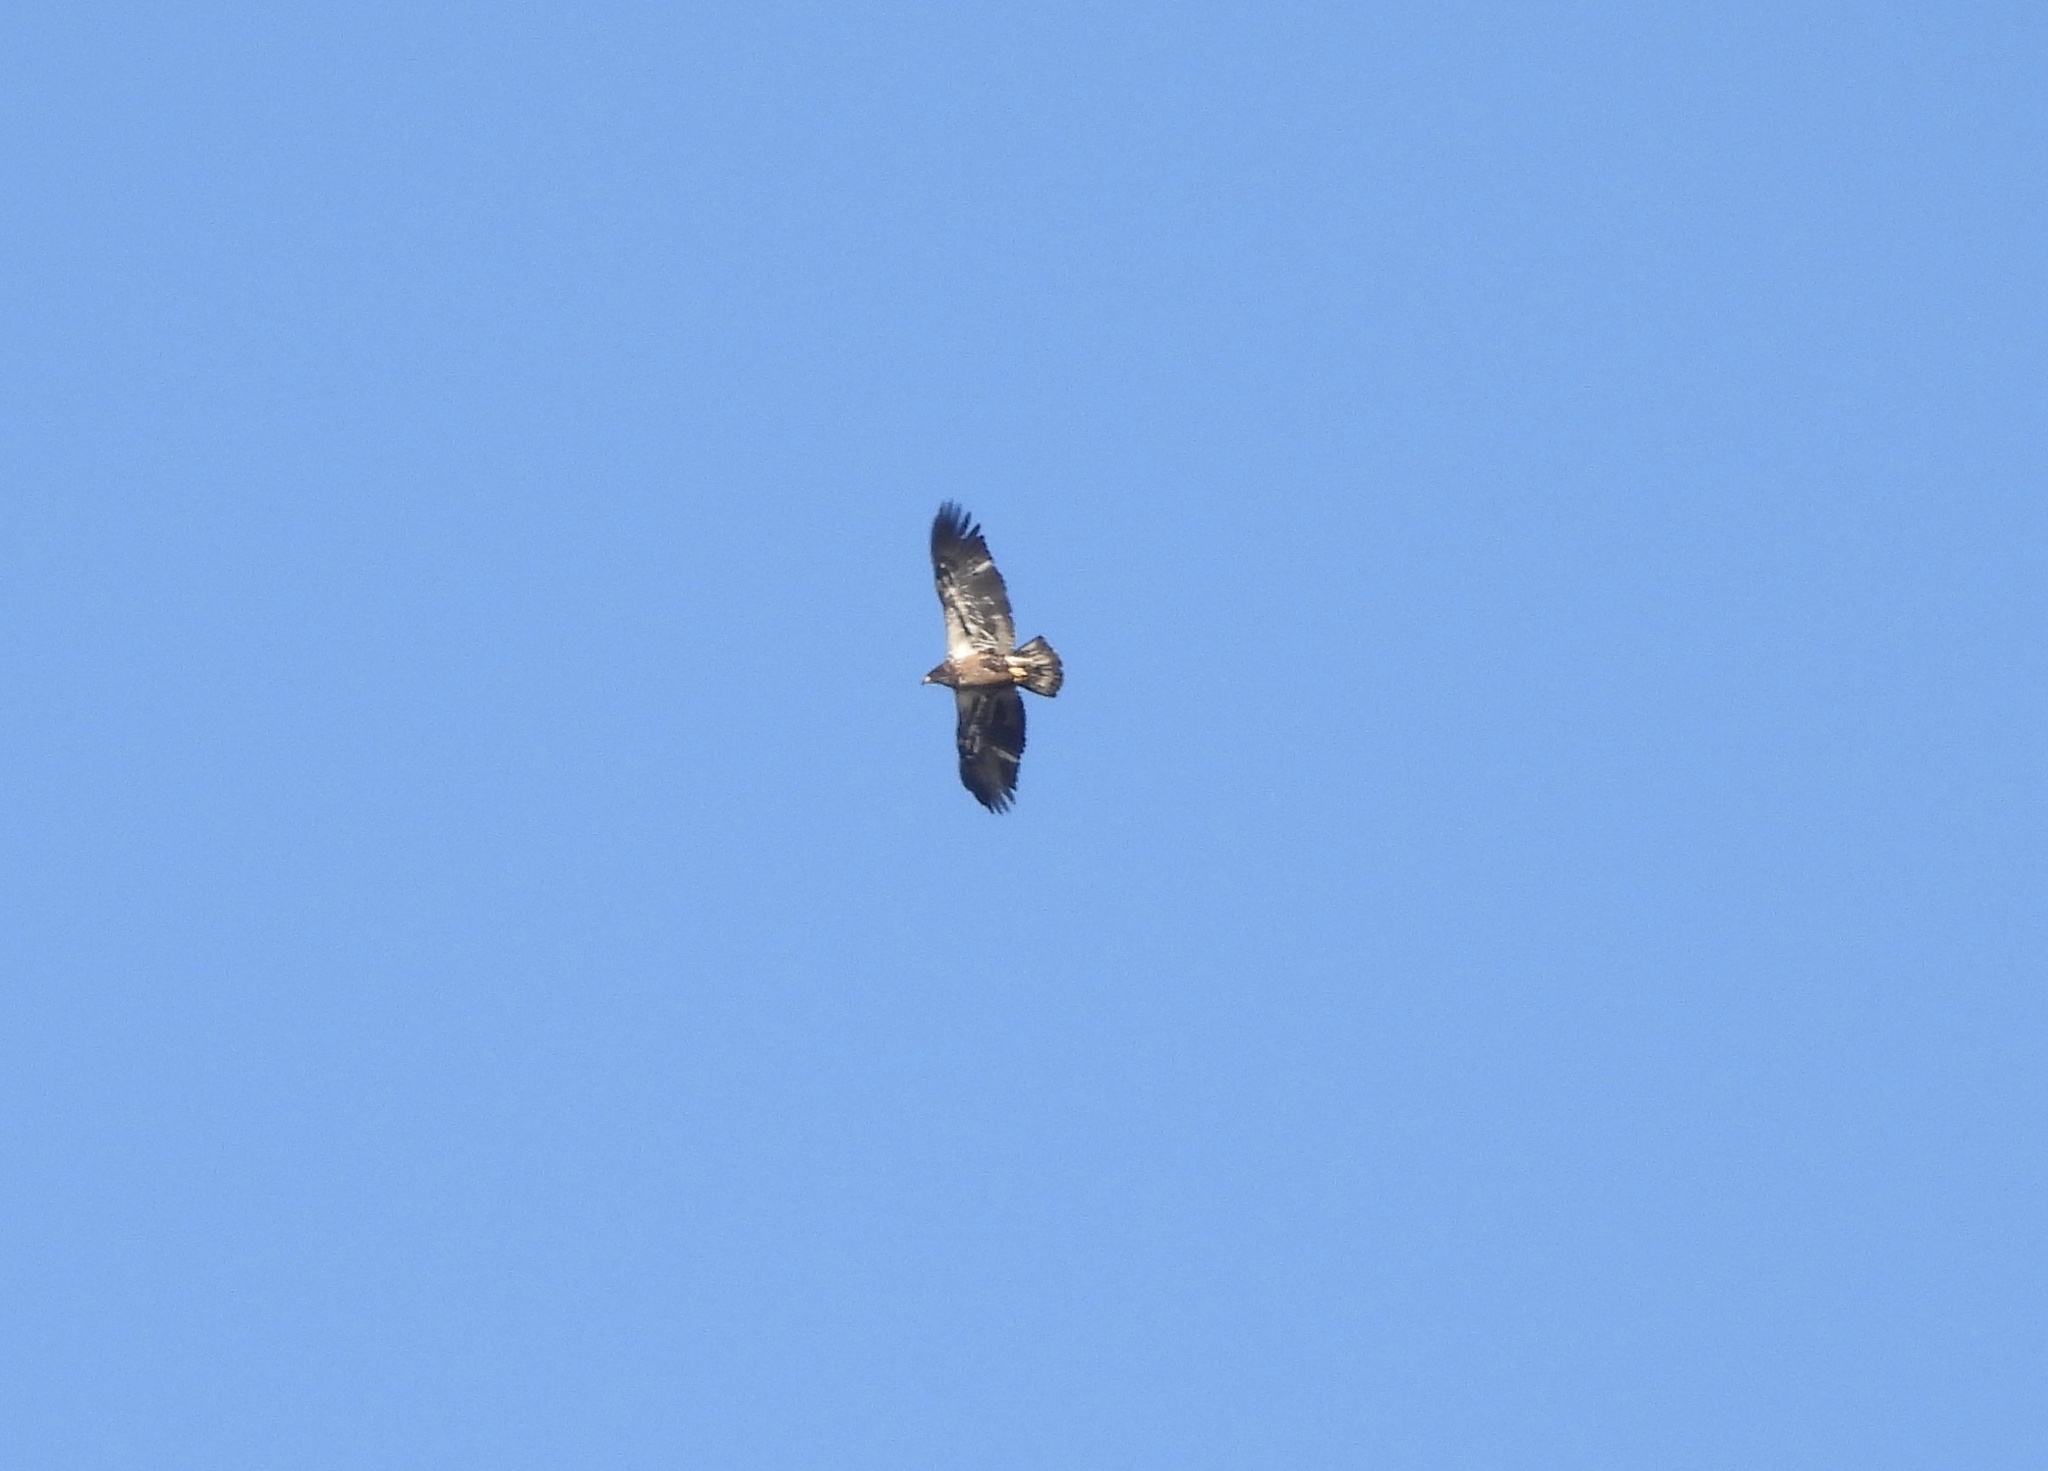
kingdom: Animalia
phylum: Chordata
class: Aves
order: Accipitriformes
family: Accipitridae
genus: Haliaeetus
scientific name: Haliaeetus leucocephalus
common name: Bald eagle
